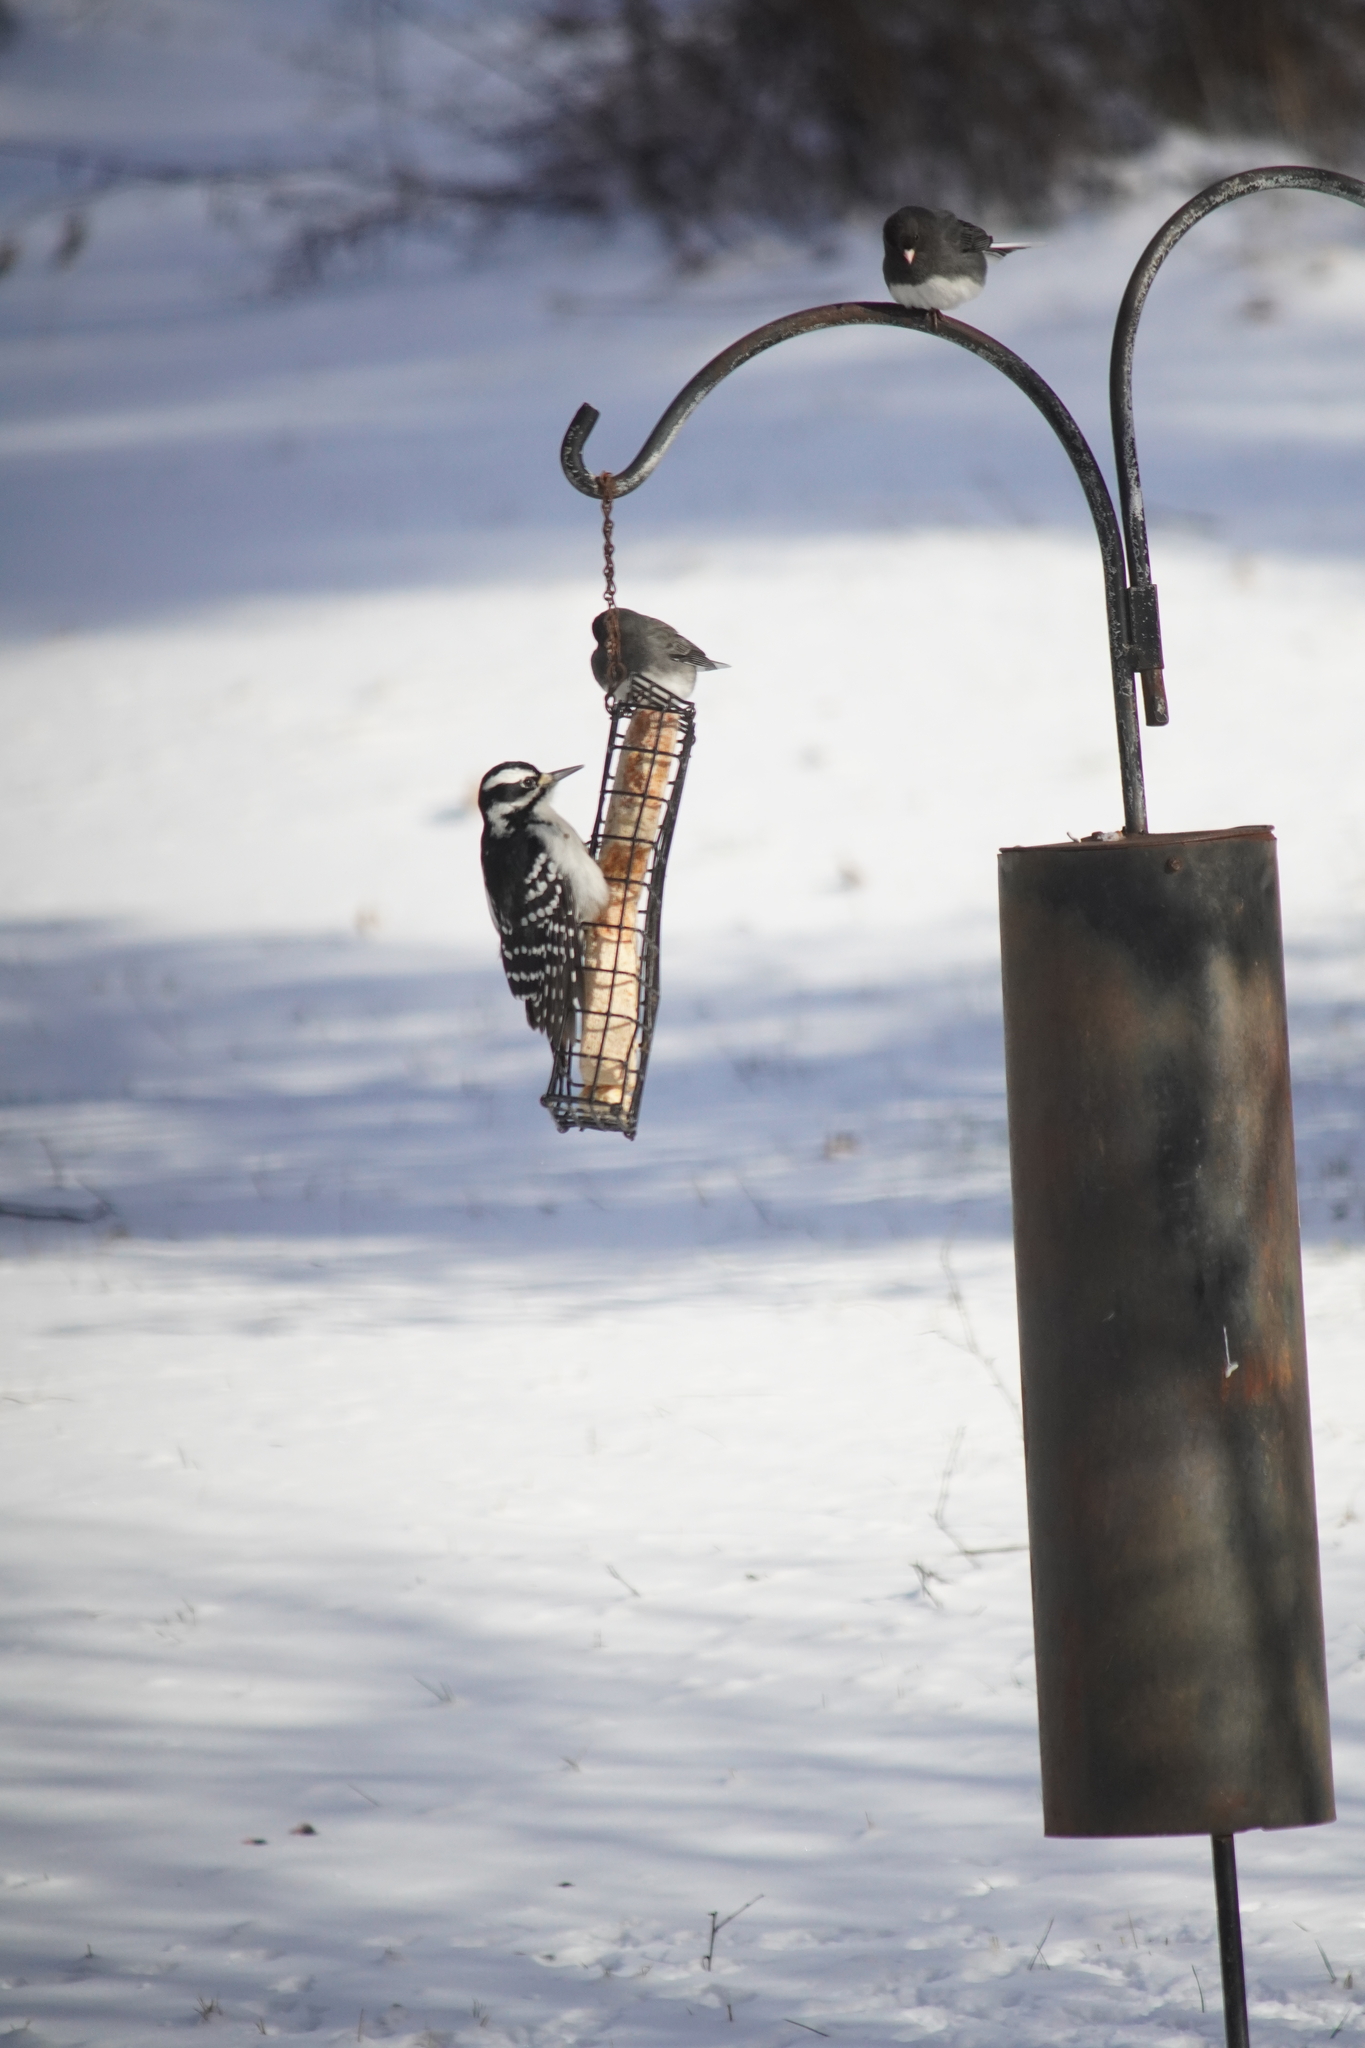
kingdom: Animalia
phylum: Chordata
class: Aves
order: Piciformes
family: Picidae
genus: Leuconotopicus
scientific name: Leuconotopicus villosus
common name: Hairy woodpecker
